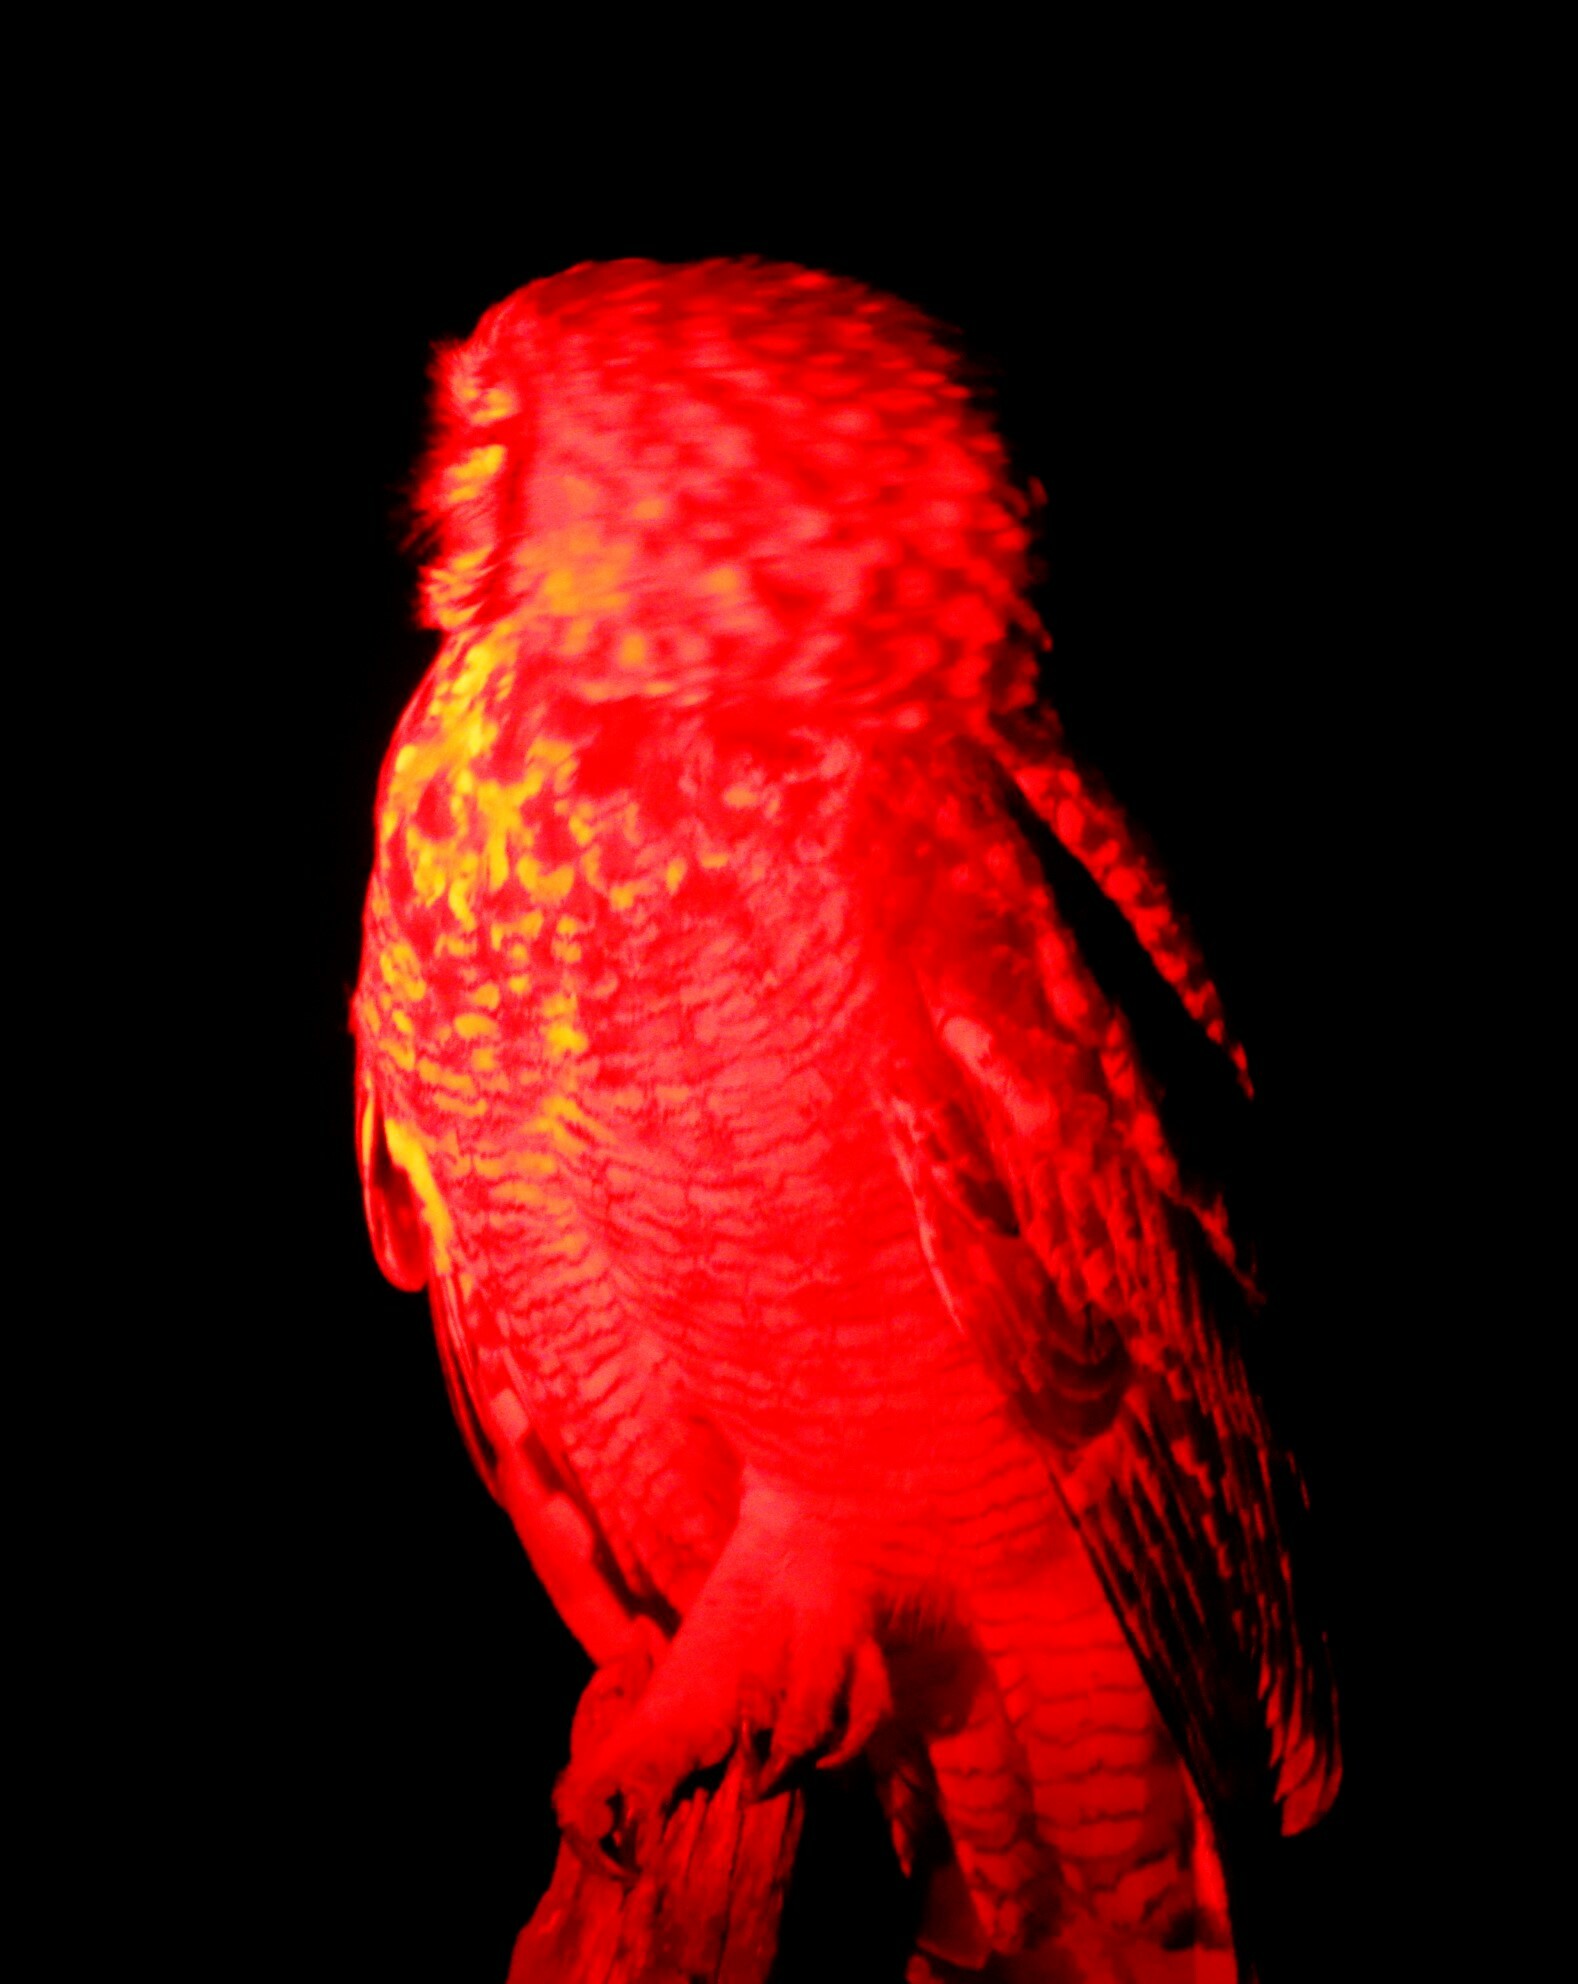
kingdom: Animalia
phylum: Chordata
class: Aves
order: Strigiformes
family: Strigidae
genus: Bubo
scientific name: Bubo africanus
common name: Spotted eagle-owl
